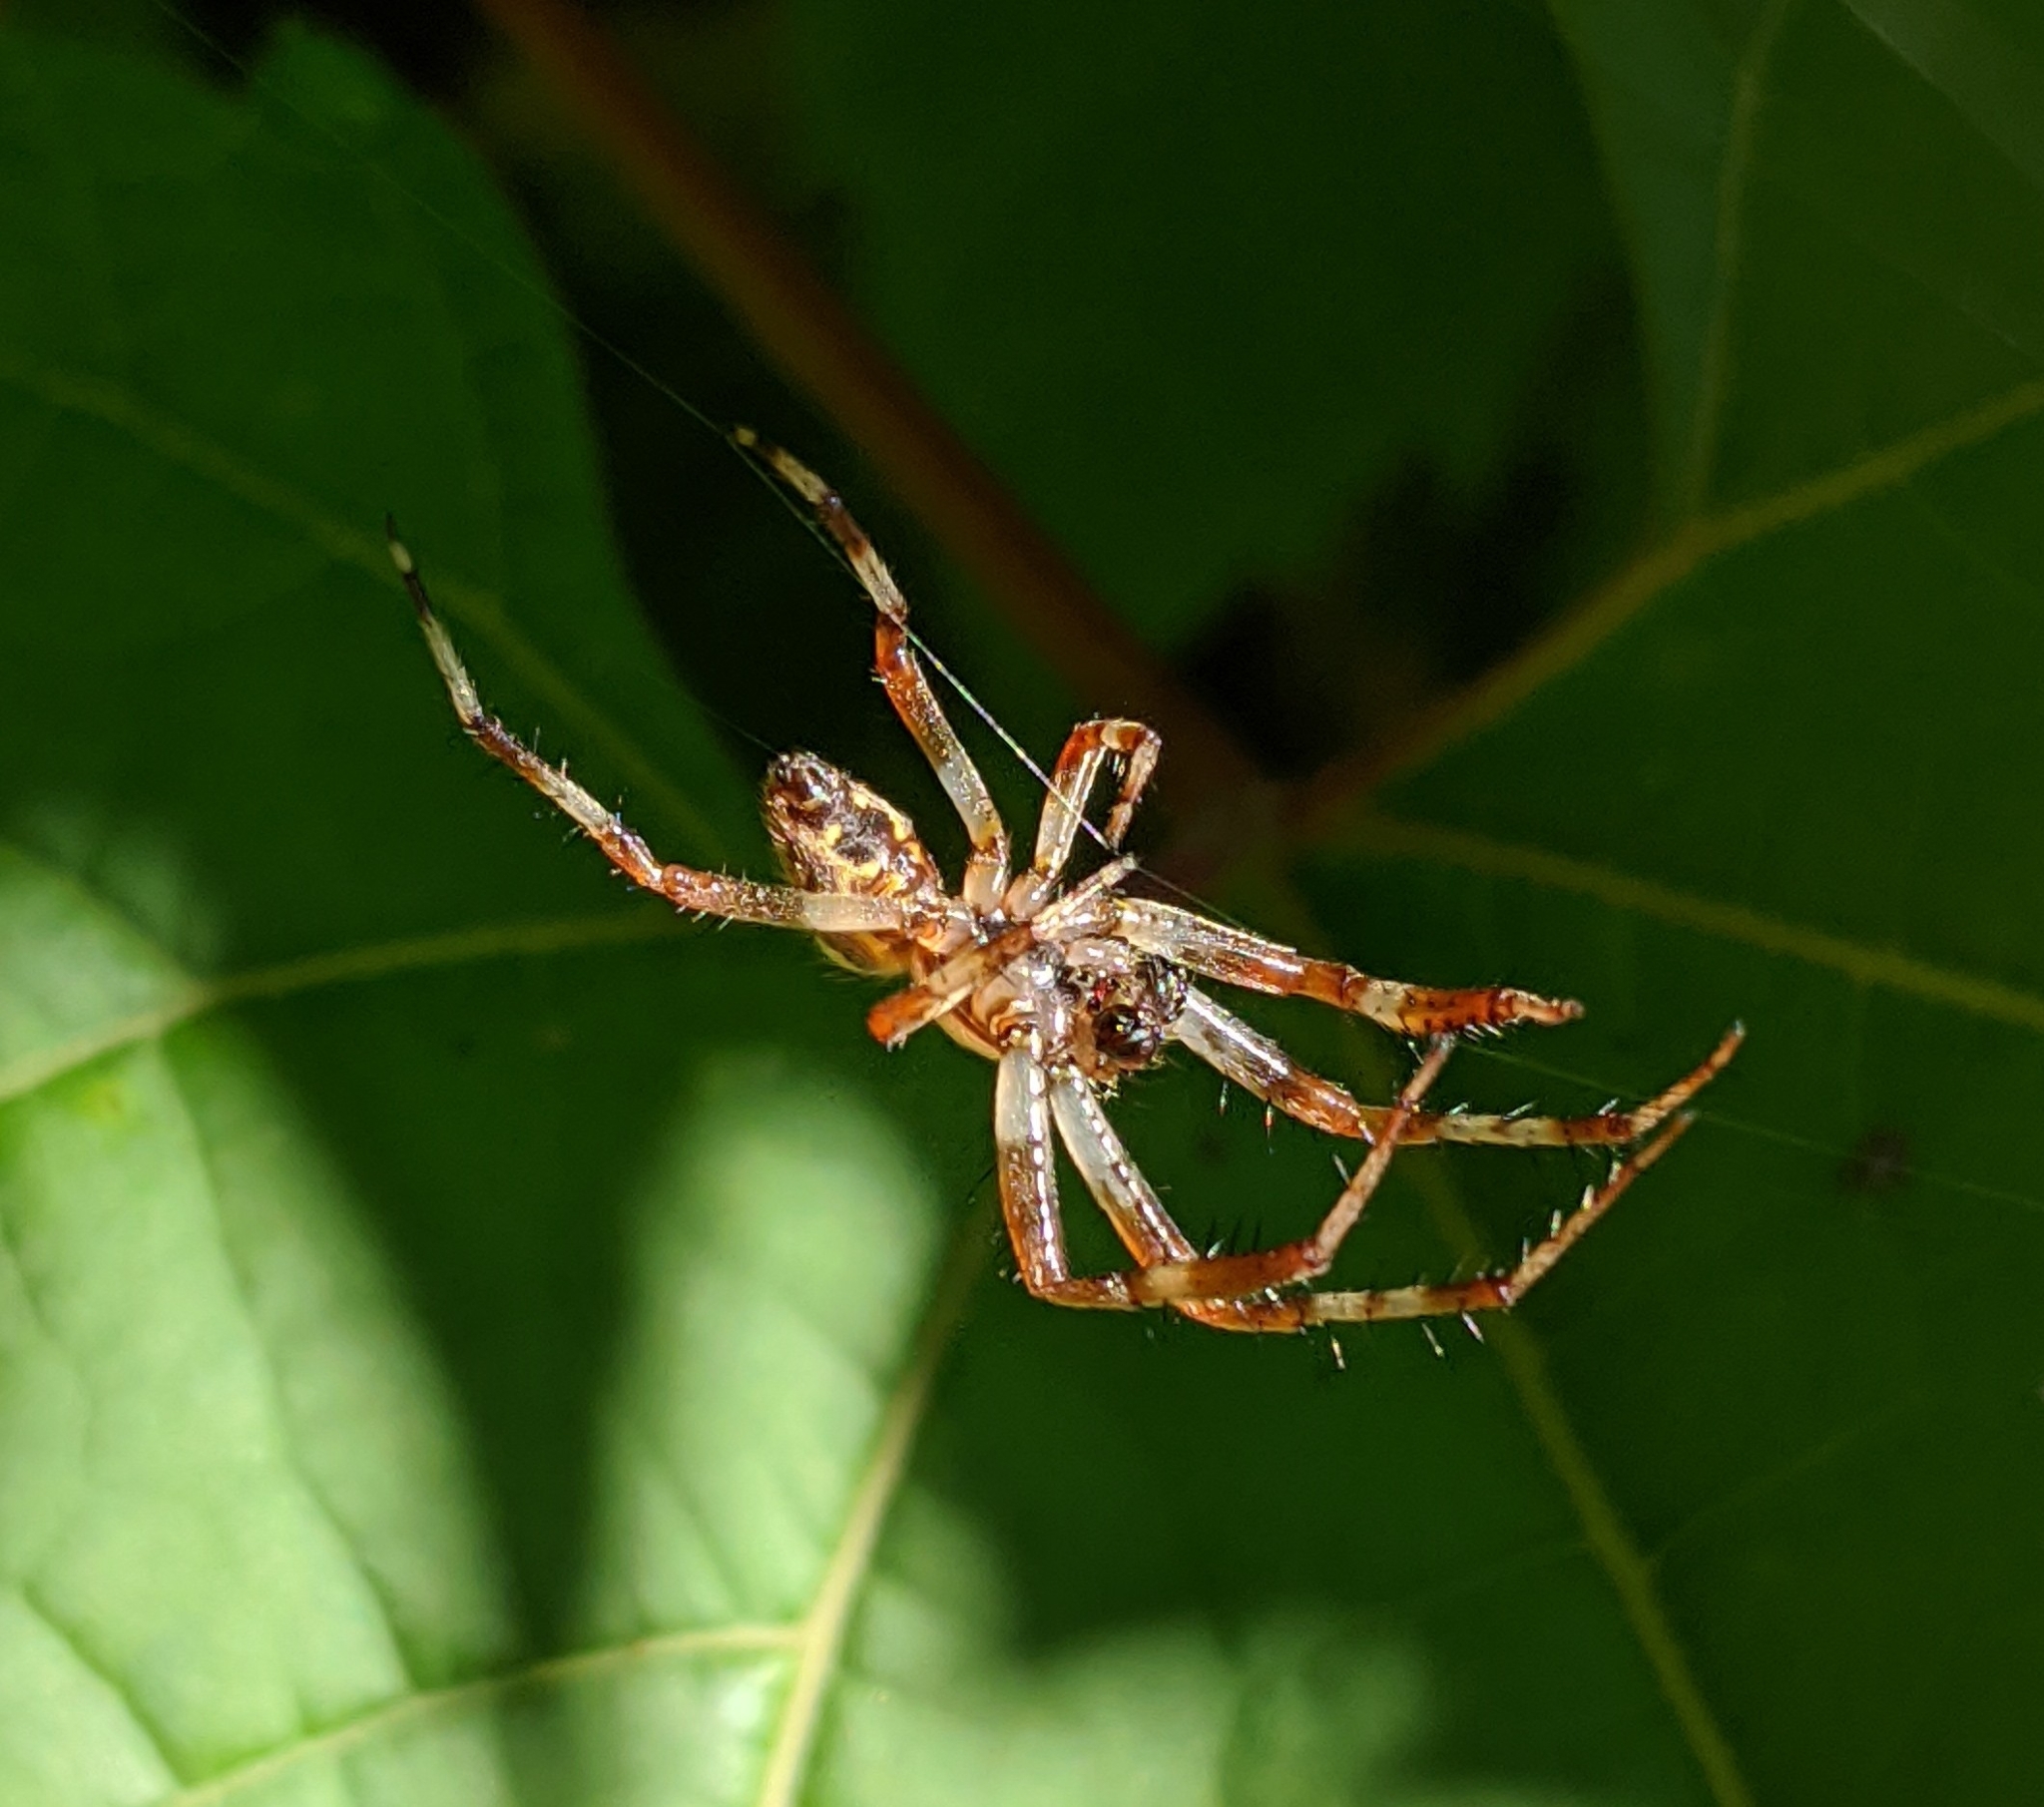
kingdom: Animalia
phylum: Arthropoda
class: Arachnida
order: Araneae
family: Araneidae
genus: Araneus
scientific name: Araneus marmoreus
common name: Marbled orbweaver
